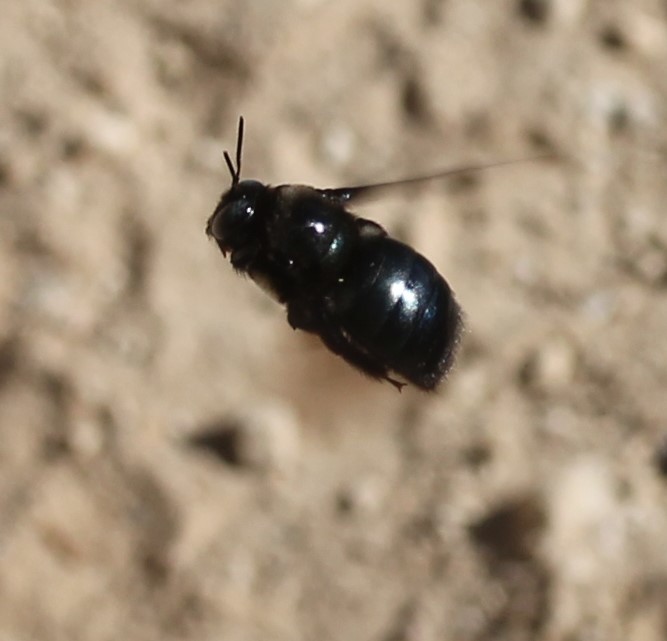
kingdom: Animalia
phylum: Arthropoda
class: Insecta
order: Hymenoptera
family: Apidae
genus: Xylocopa
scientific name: Xylocopa californica
